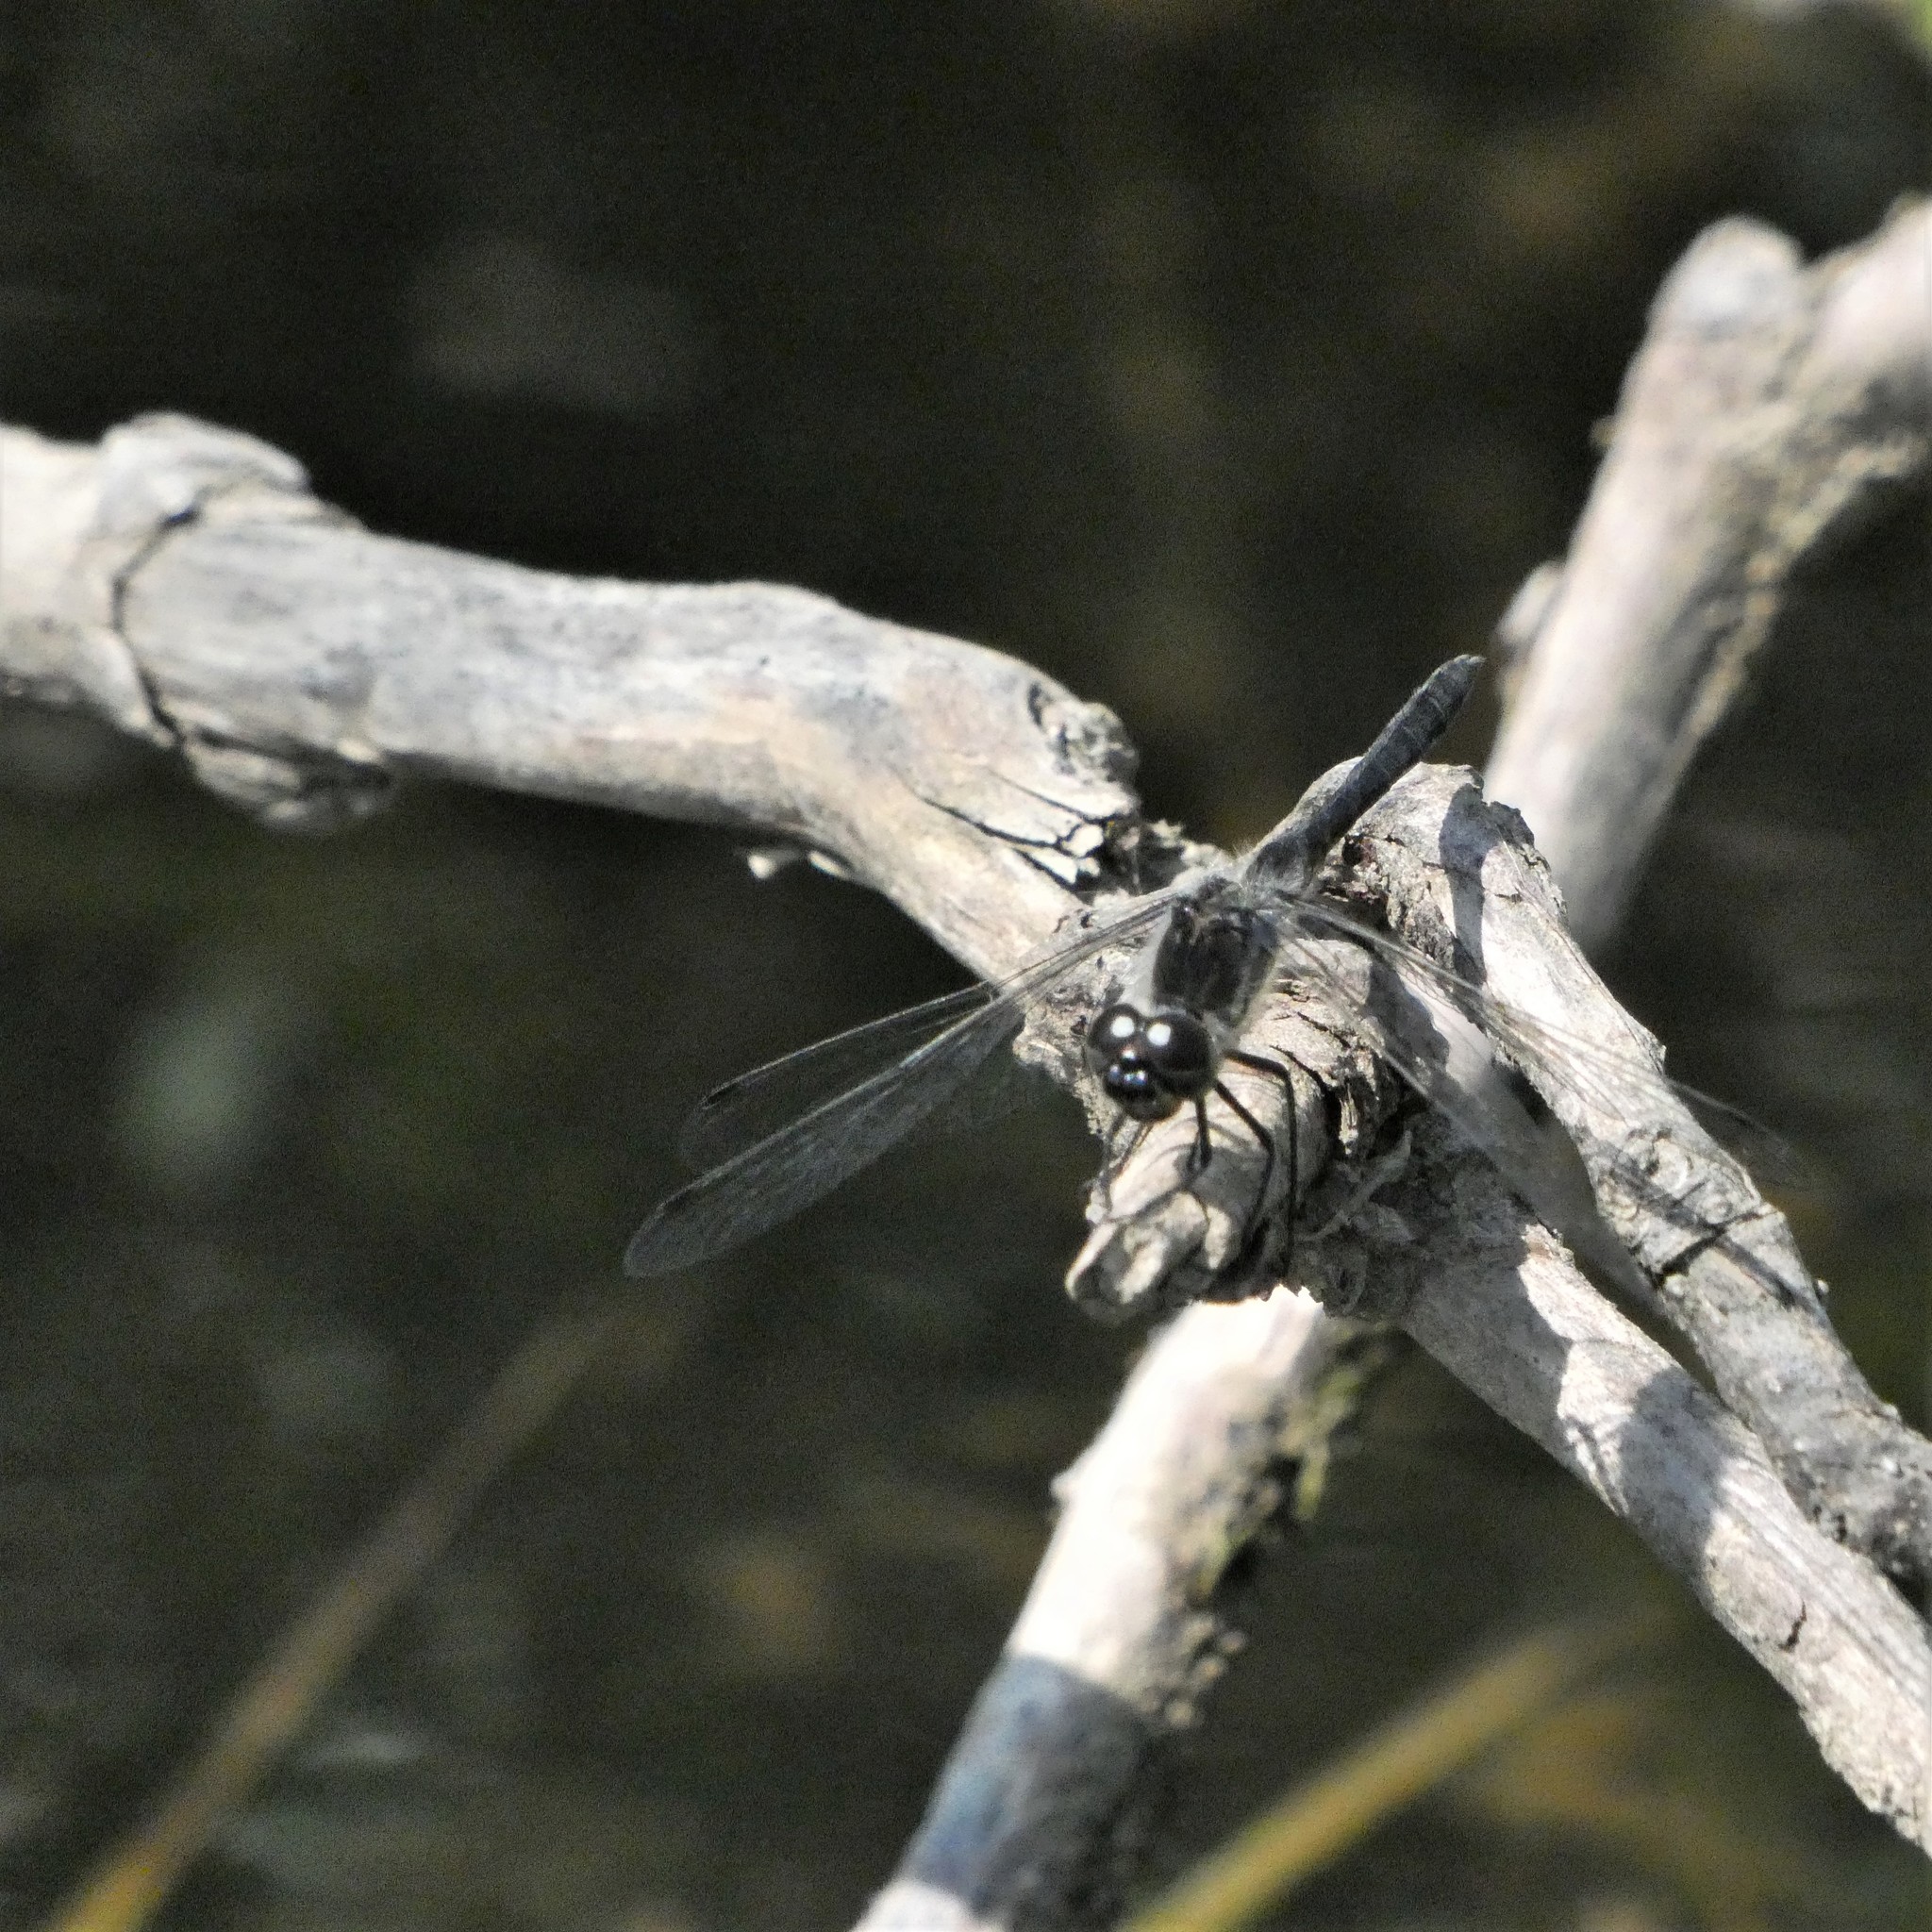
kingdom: Animalia
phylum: Arthropoda
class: Insecta
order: Odonata
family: Libellulidae
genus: Sympetrum
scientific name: Sympetrum danae
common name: Black darter
